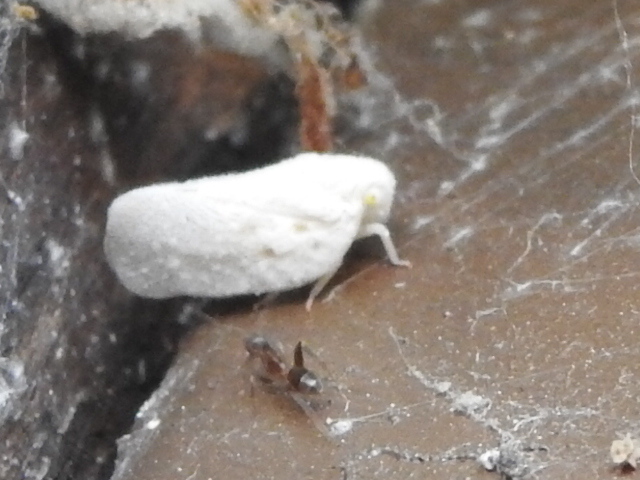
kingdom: Animalia
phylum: Arthropoda
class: Insecta
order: Hemiptera
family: Flatidae
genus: Metcalfa
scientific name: Metcalfa pruinosa
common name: Citrus flatid planthopper
